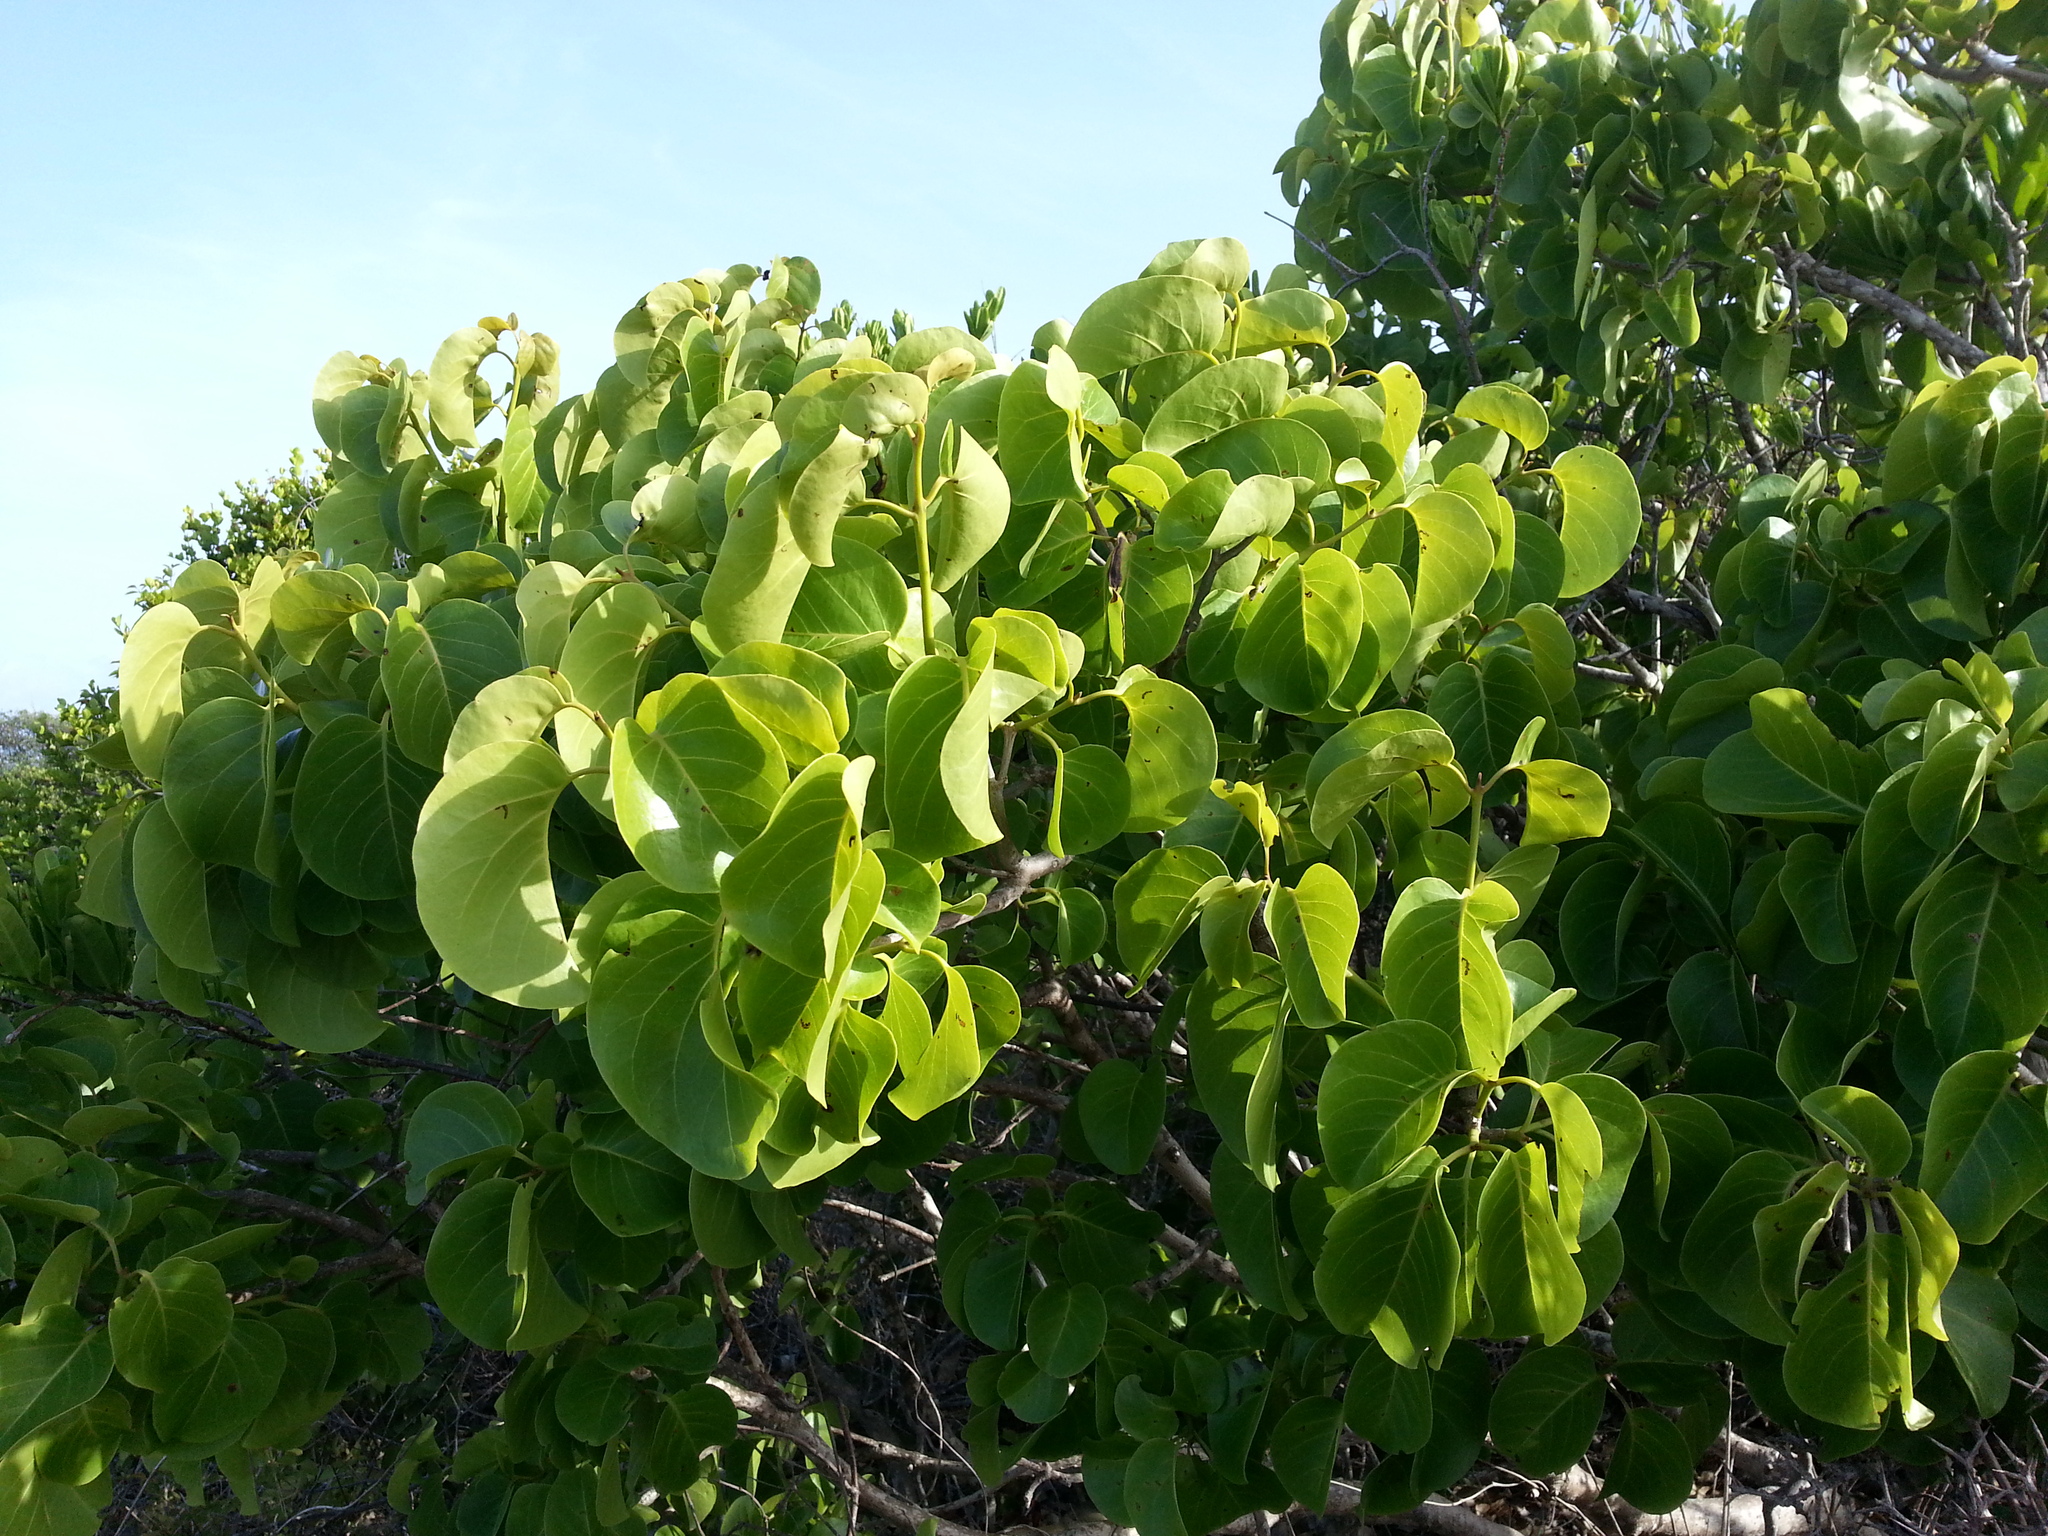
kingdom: Plantae
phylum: Tracheophyta
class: Magnoliopsida
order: Caryophyllales
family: Nyctaginaceae
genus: Pisonia
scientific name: Pisonia subcordata
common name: Mampoo
